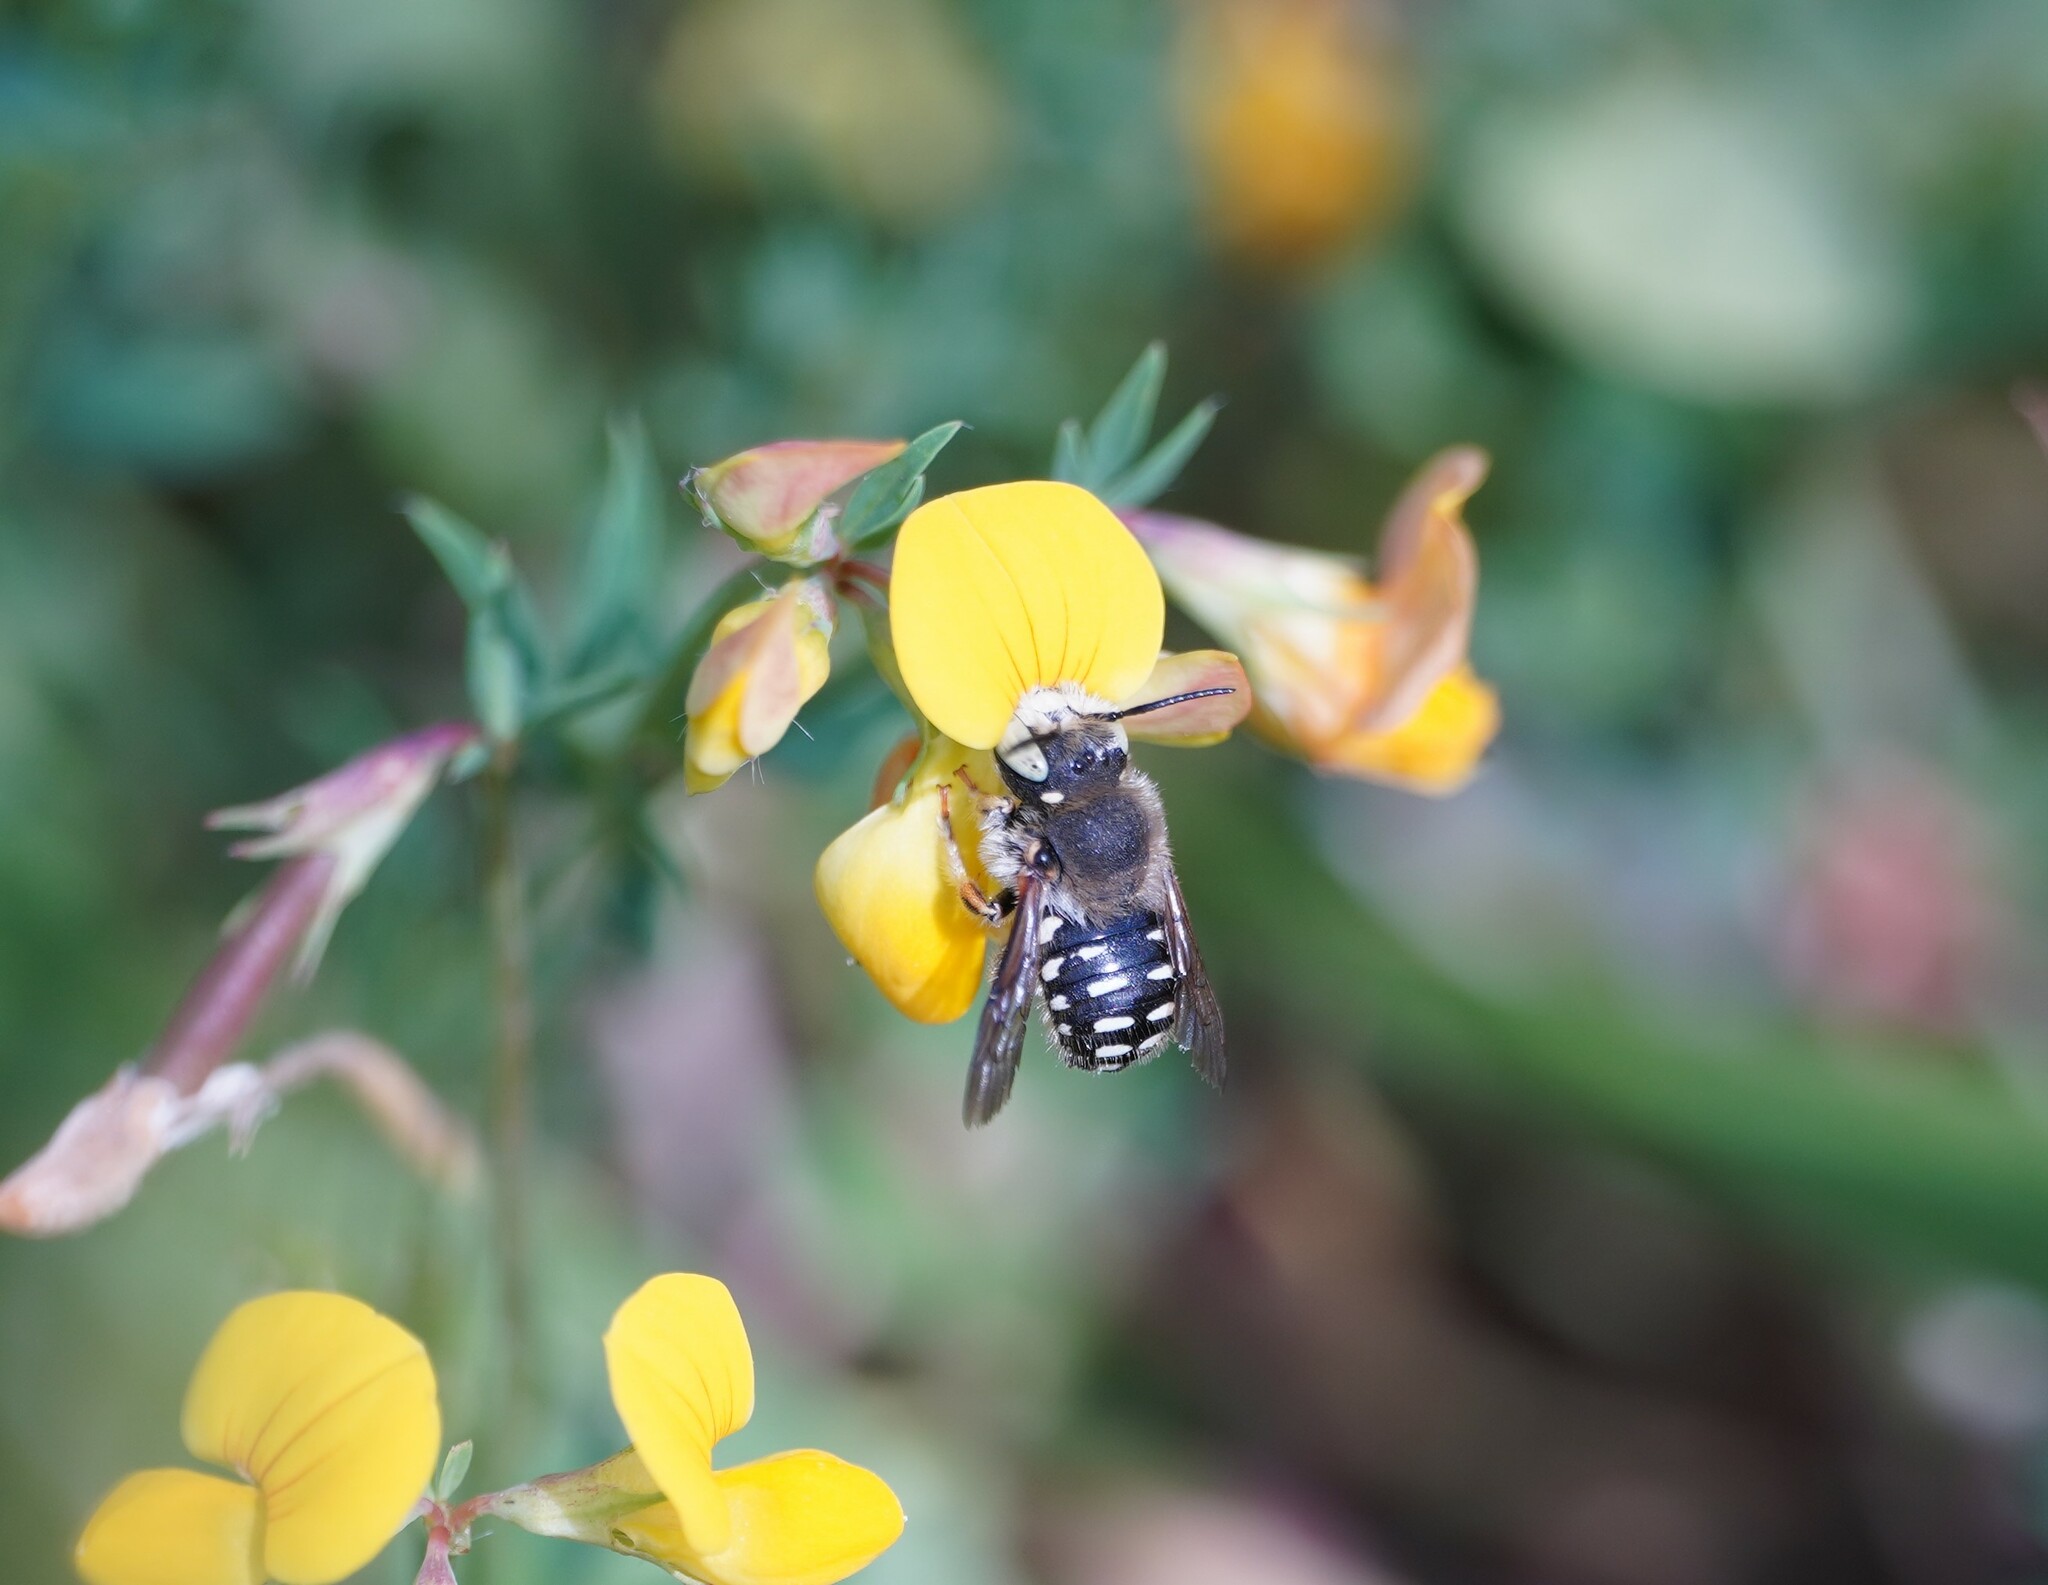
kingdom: Animalia
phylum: Arthropoda
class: Insecta
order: Hymenoptera
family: Megachilidae
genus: Anthidium
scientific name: Anthidium punctatum
